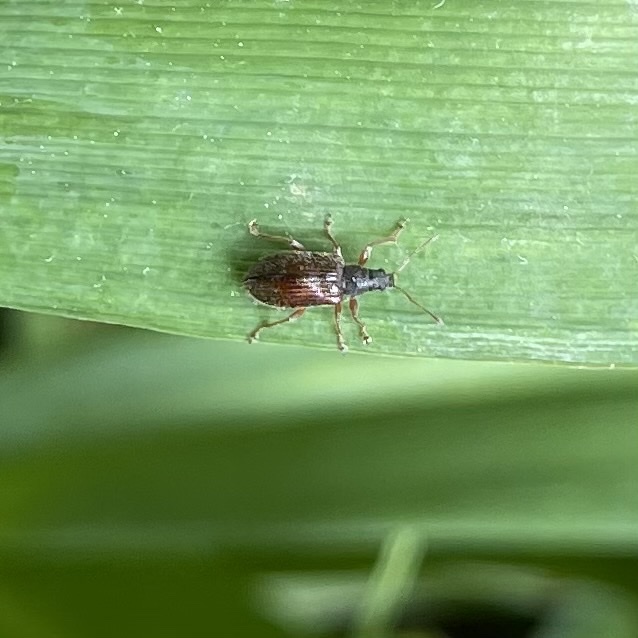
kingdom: Animalia
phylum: Arthropoda
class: Insecta
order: Coleoptera
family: Curculionidae
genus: Phyllobius
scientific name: Phyllobius oblongus
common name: Brown leaf weevil
